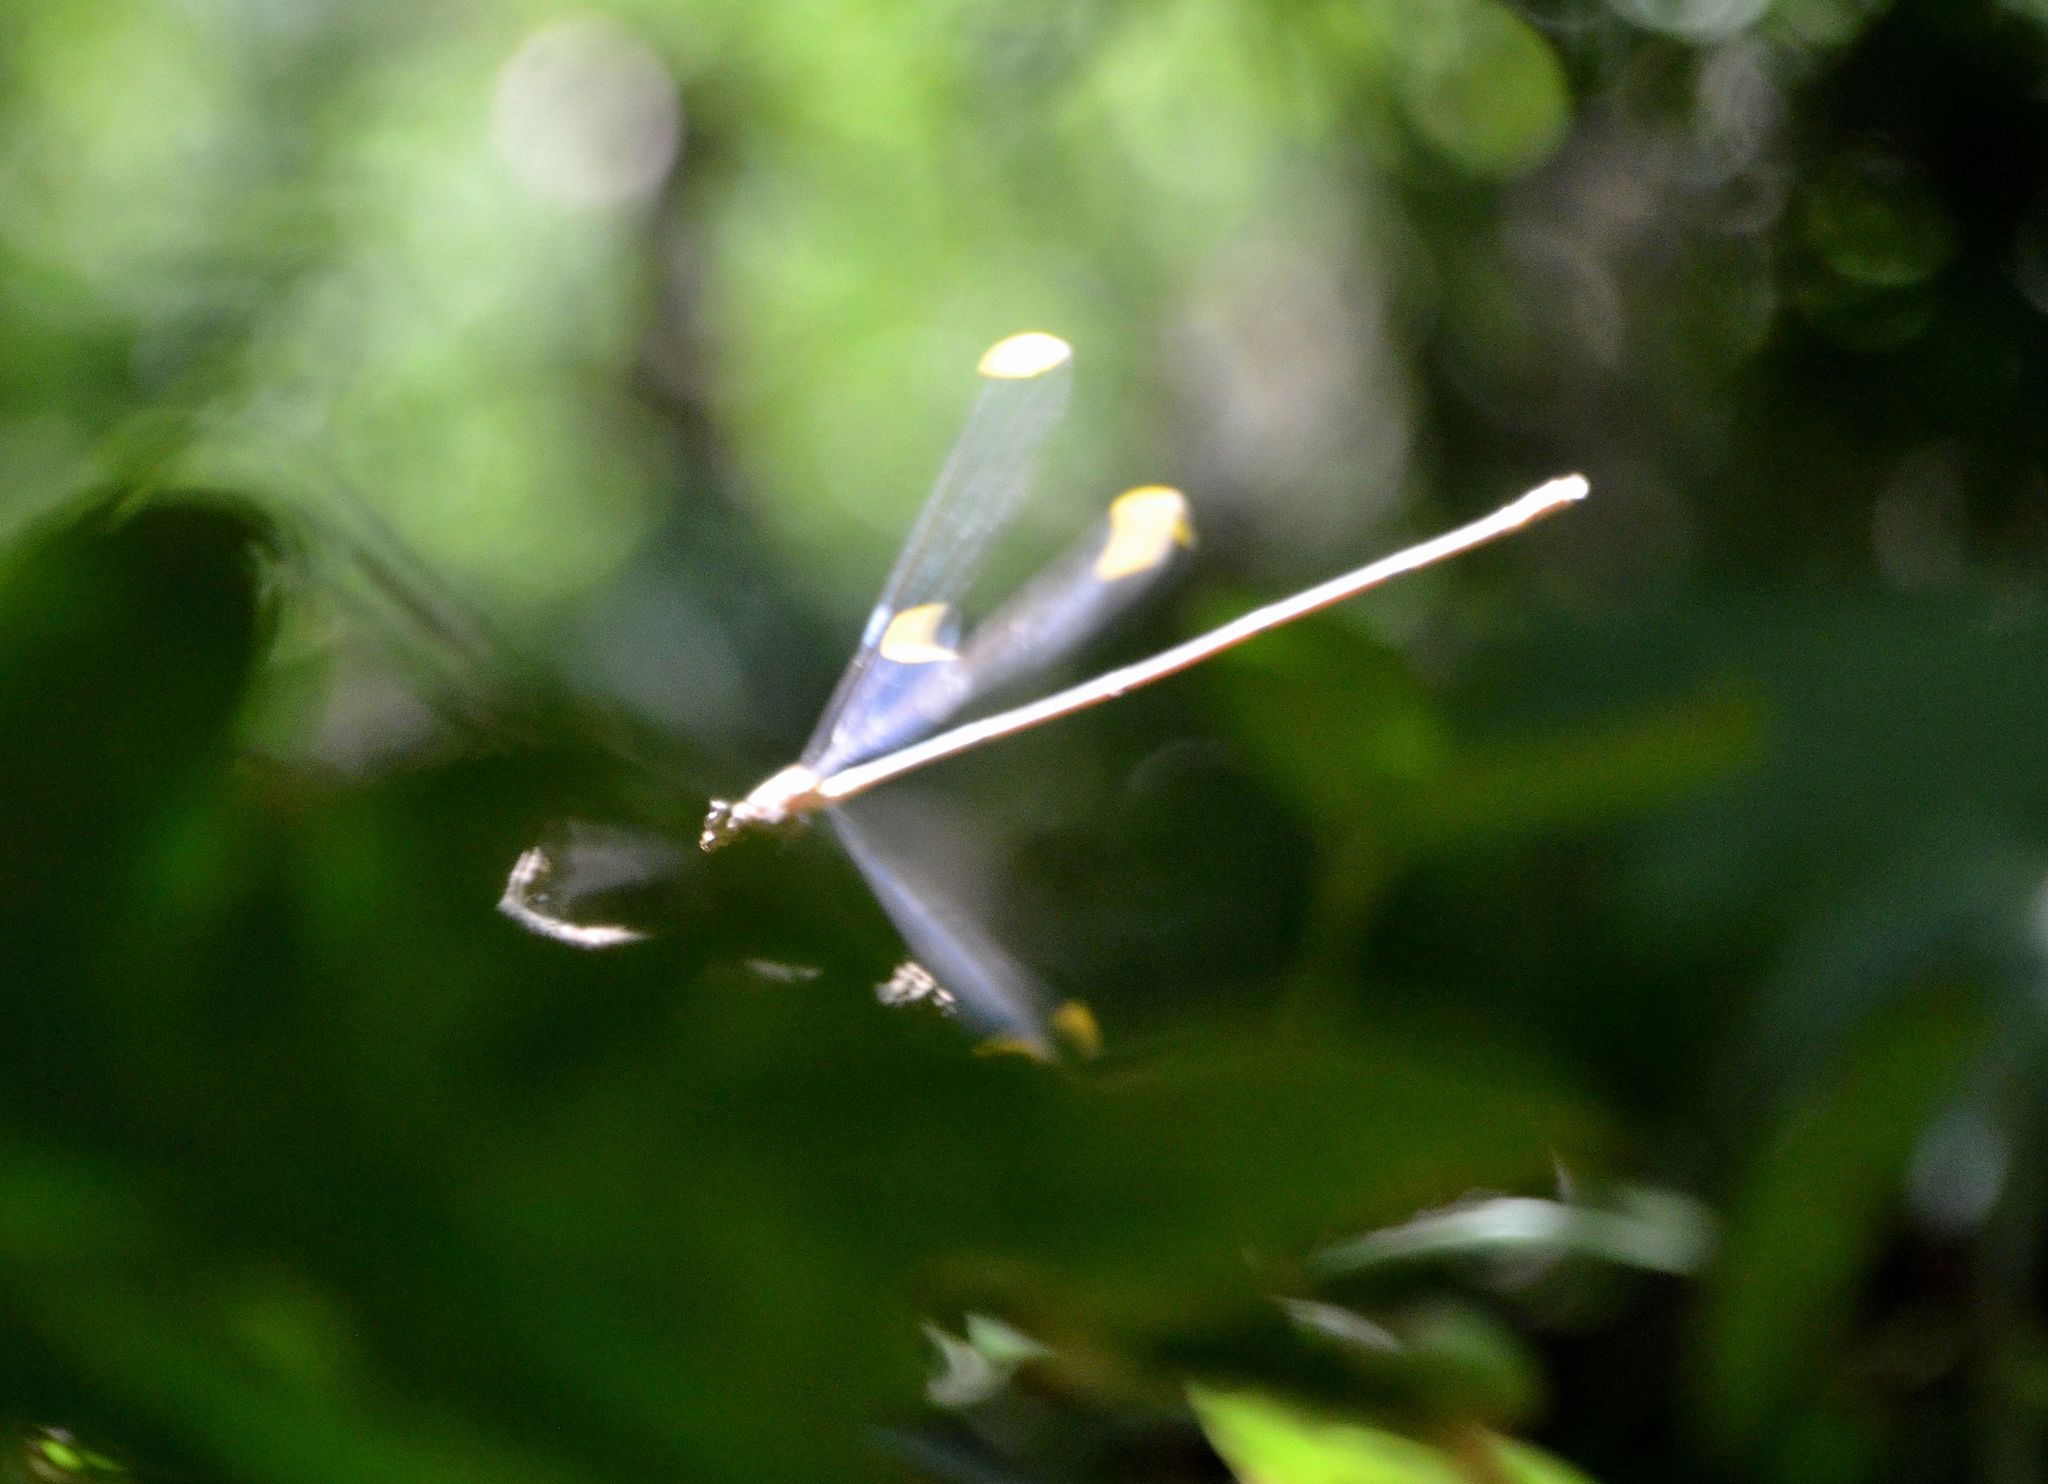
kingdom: Animalia
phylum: Arthropoda
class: Insecta
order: Odonata
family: Coenagrionidae
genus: Mecistogaster
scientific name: Mecistogaster ornata
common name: Ornate helicopter
